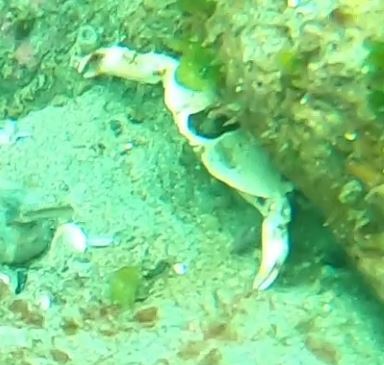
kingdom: Animalia
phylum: Arthropoda
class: Malacostraca
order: Decapoda
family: Cancridae
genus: Cancer
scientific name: Cancer productus
